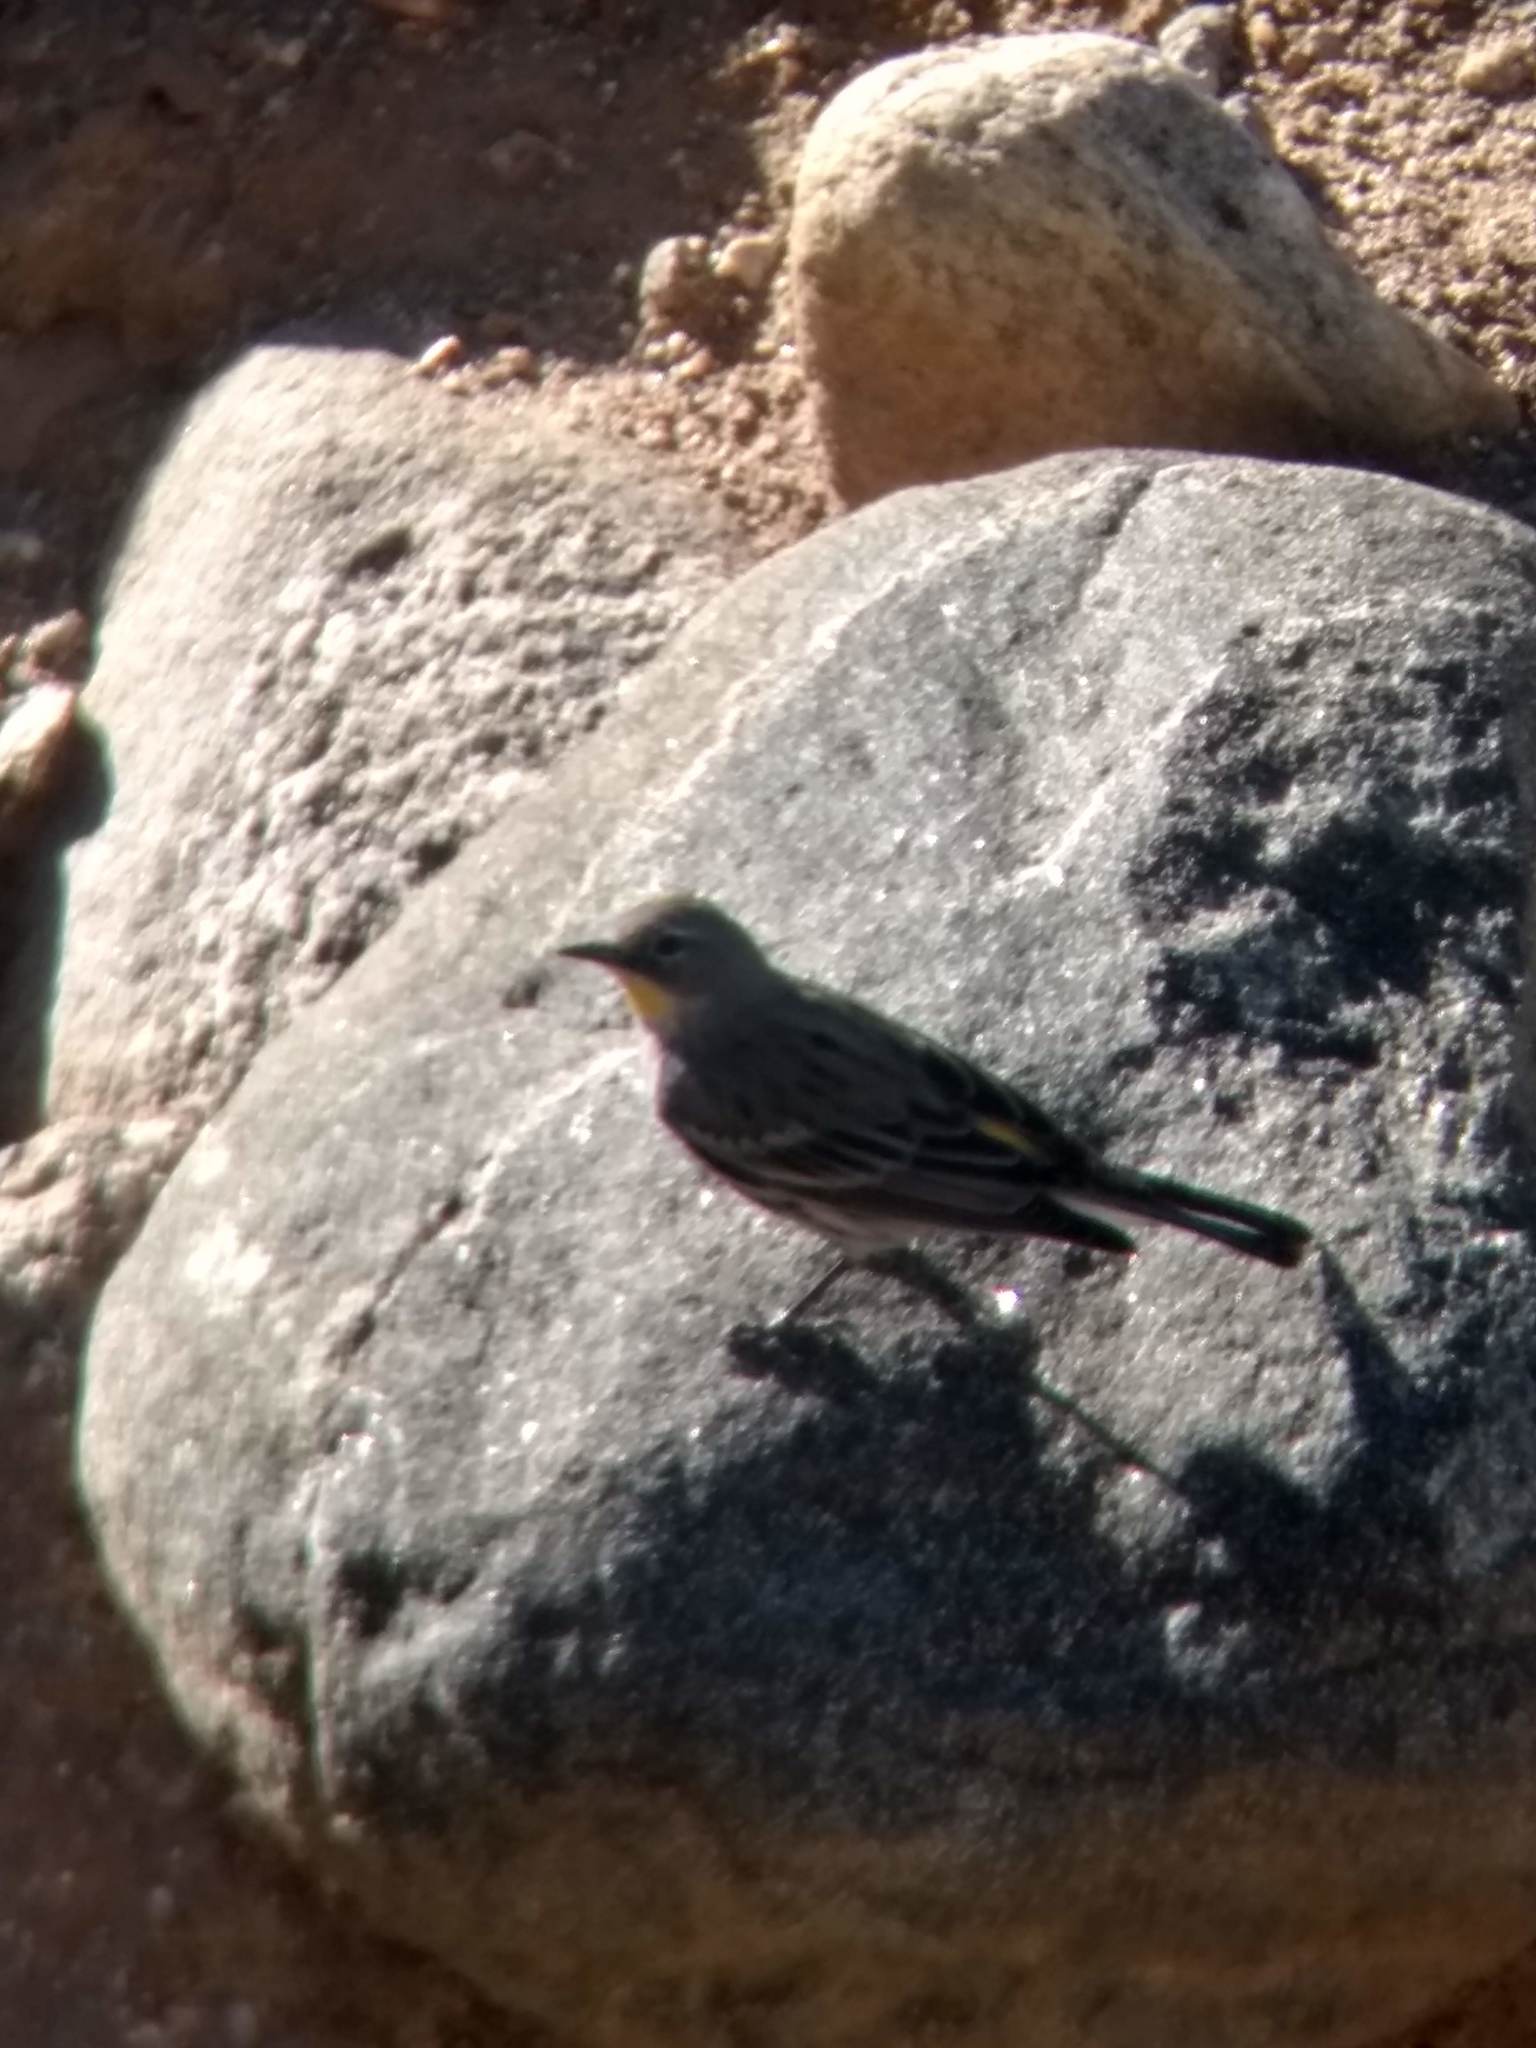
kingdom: Animalia
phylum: Chordata
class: Aves
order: Passeriformes
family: Parulidae
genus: Setophaga
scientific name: Setophaga coronata
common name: Myrtle warbler
